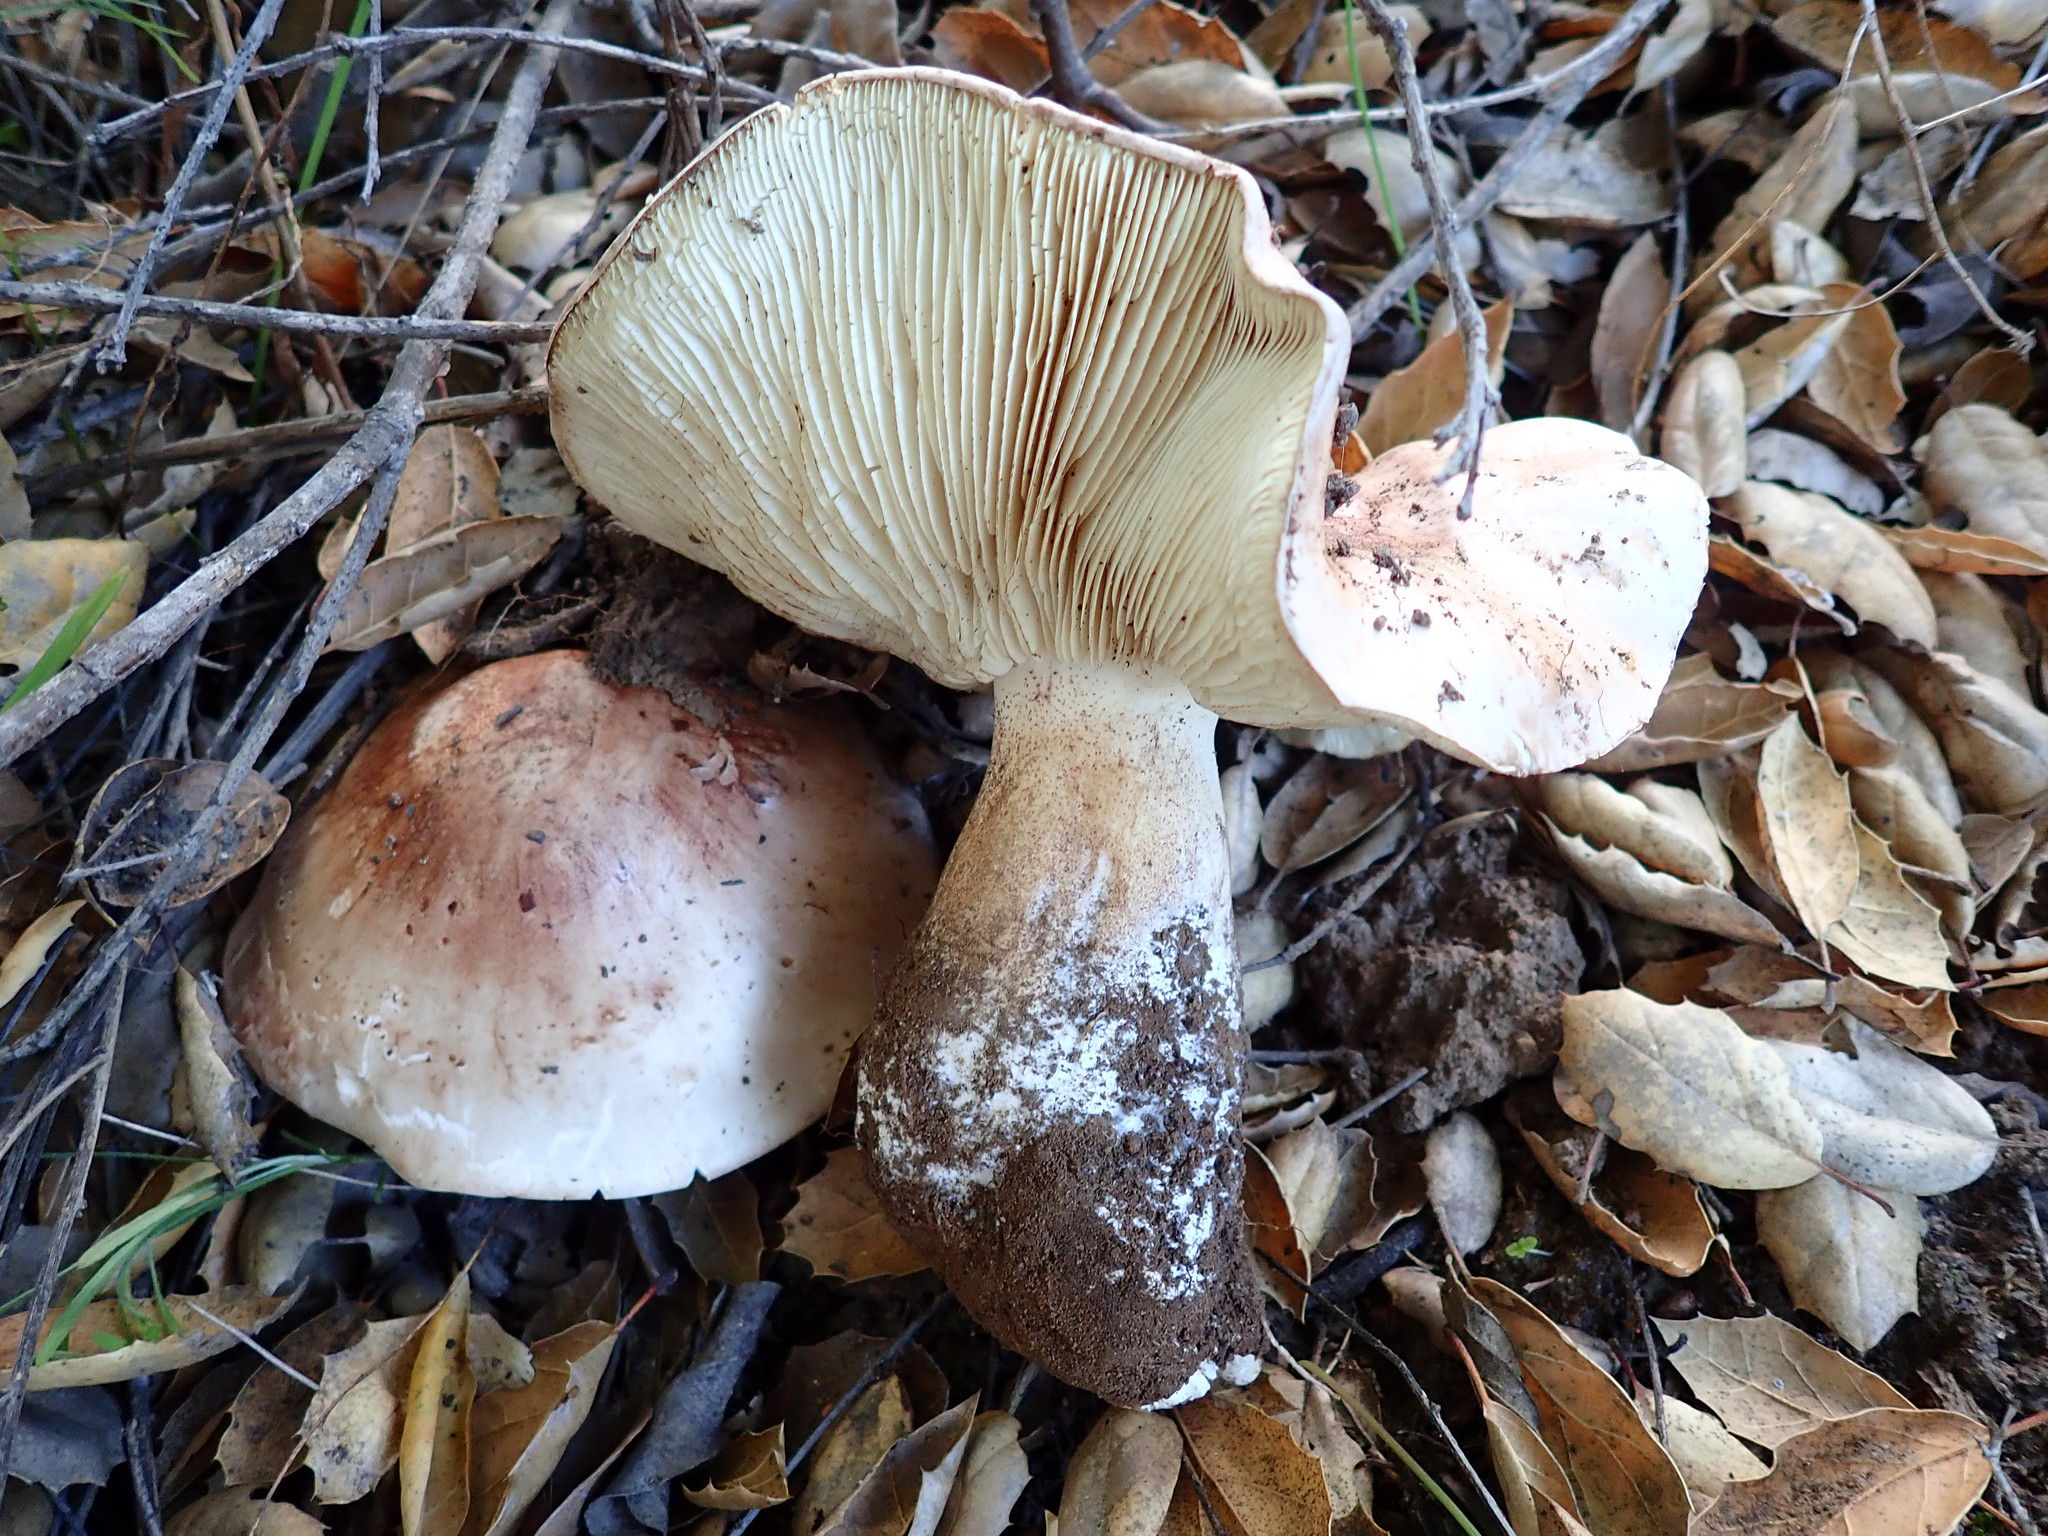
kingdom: Fungi
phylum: Basidiomycota
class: Agaricomycetes
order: Agaricales
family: Tricholomataceae
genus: Melanoleuca
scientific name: Melanoleuca dryophila
